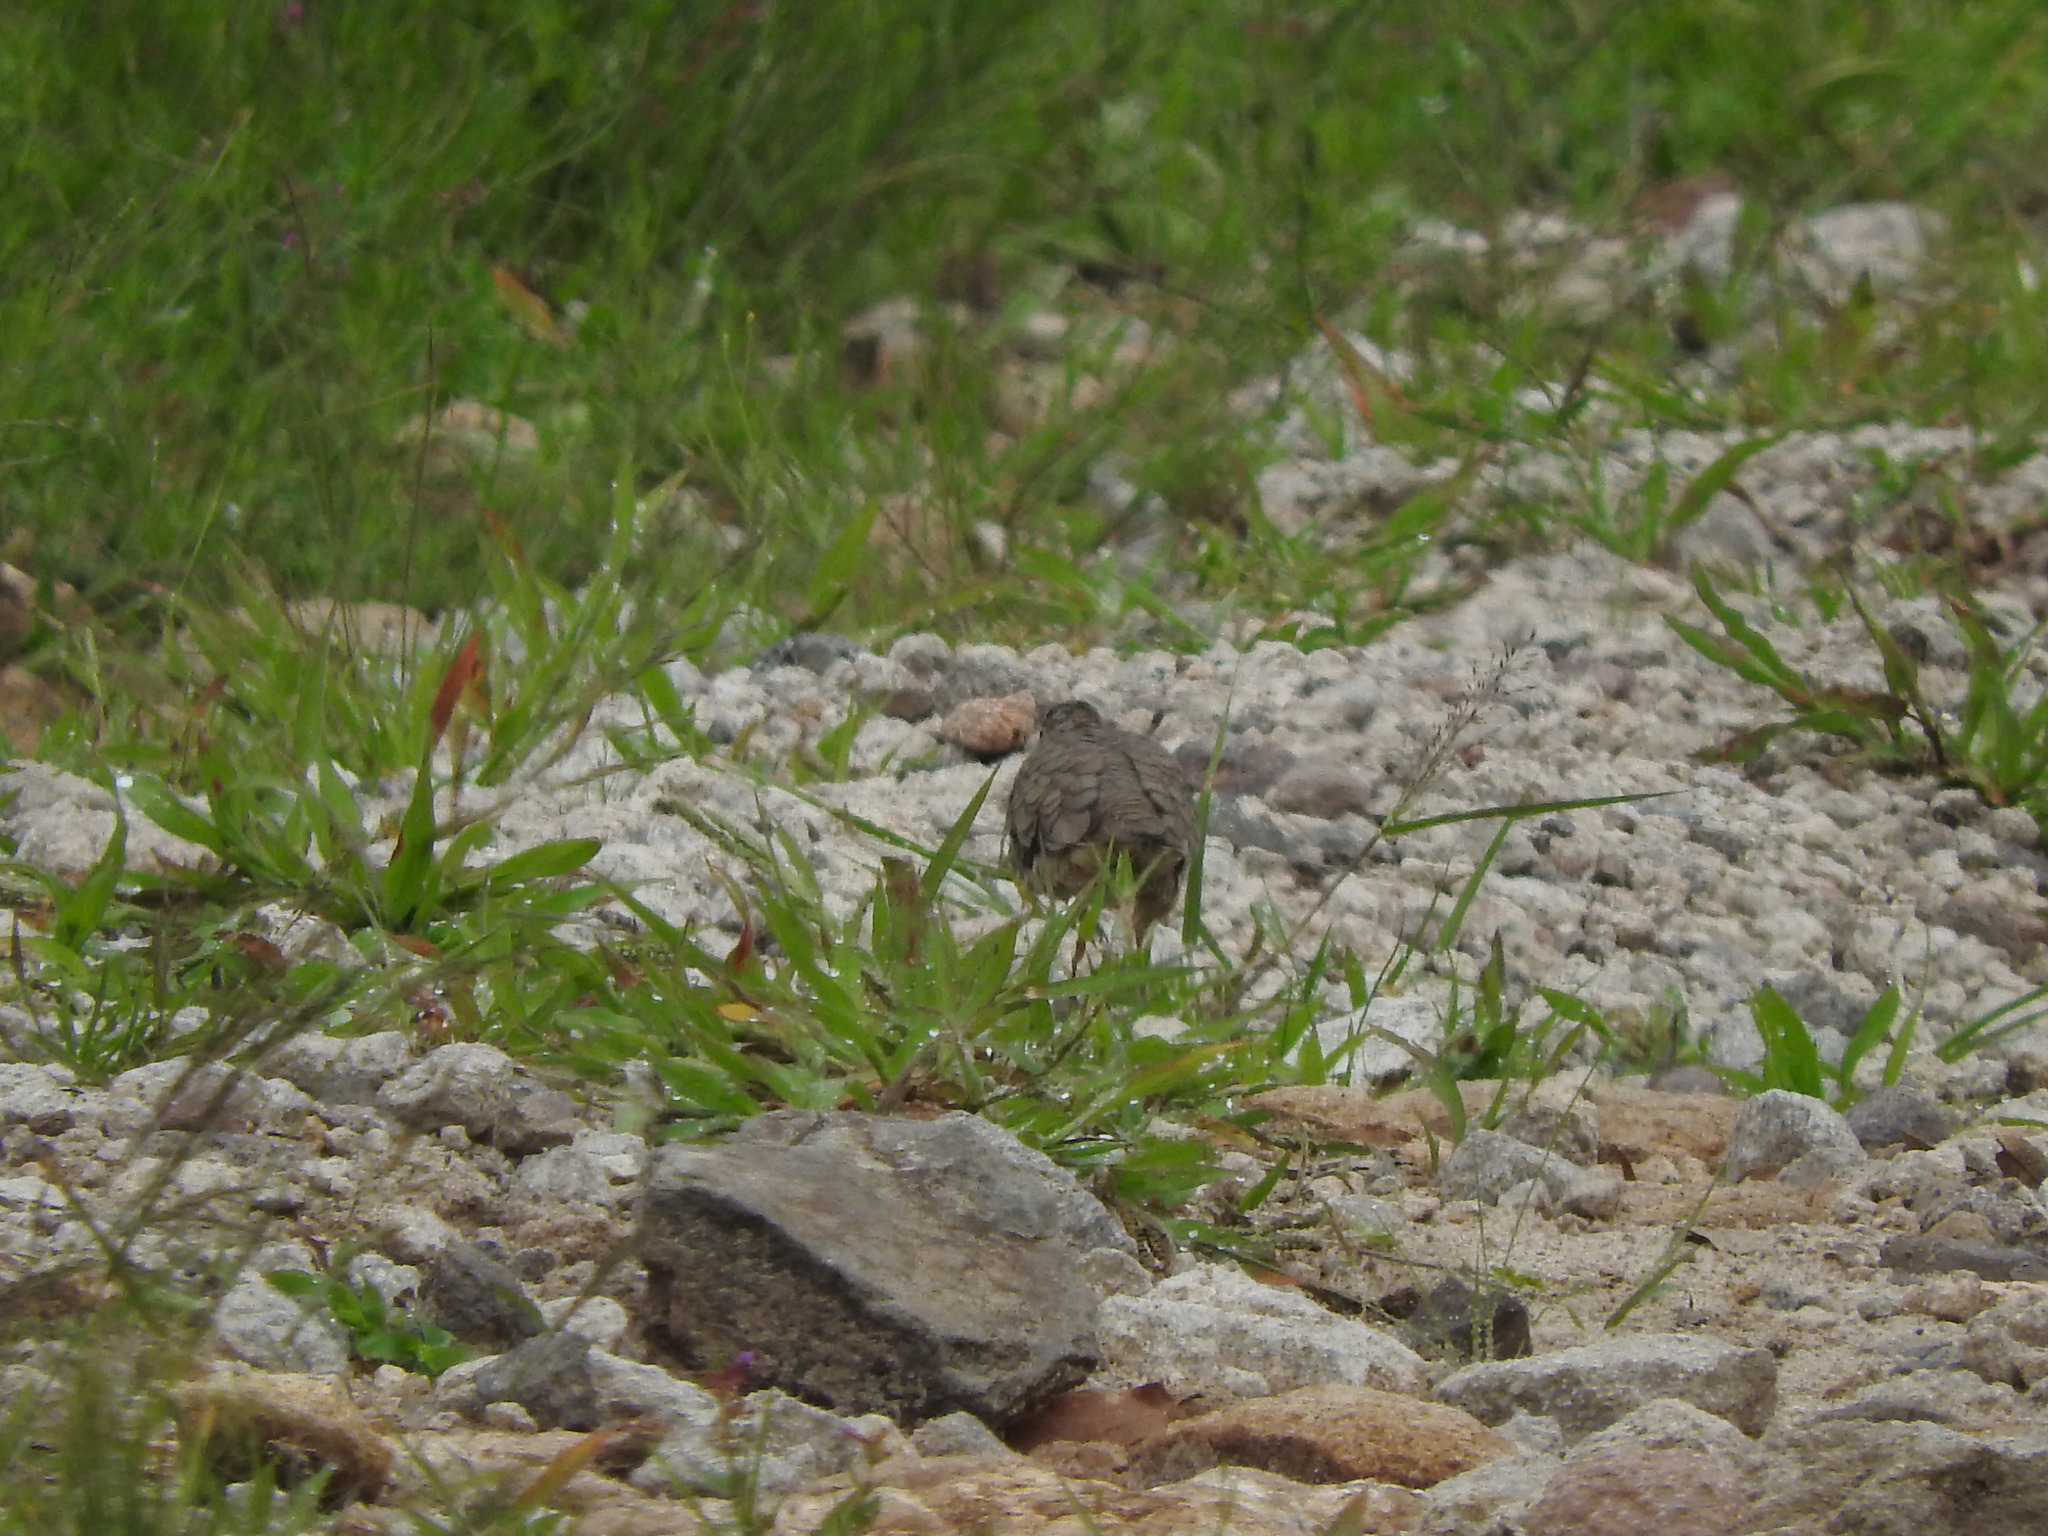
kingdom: Animalia
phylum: Chordata
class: Aves
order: Columbiformes
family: Columbidae
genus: Columbina
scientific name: Columbina inca
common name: Inca dove
